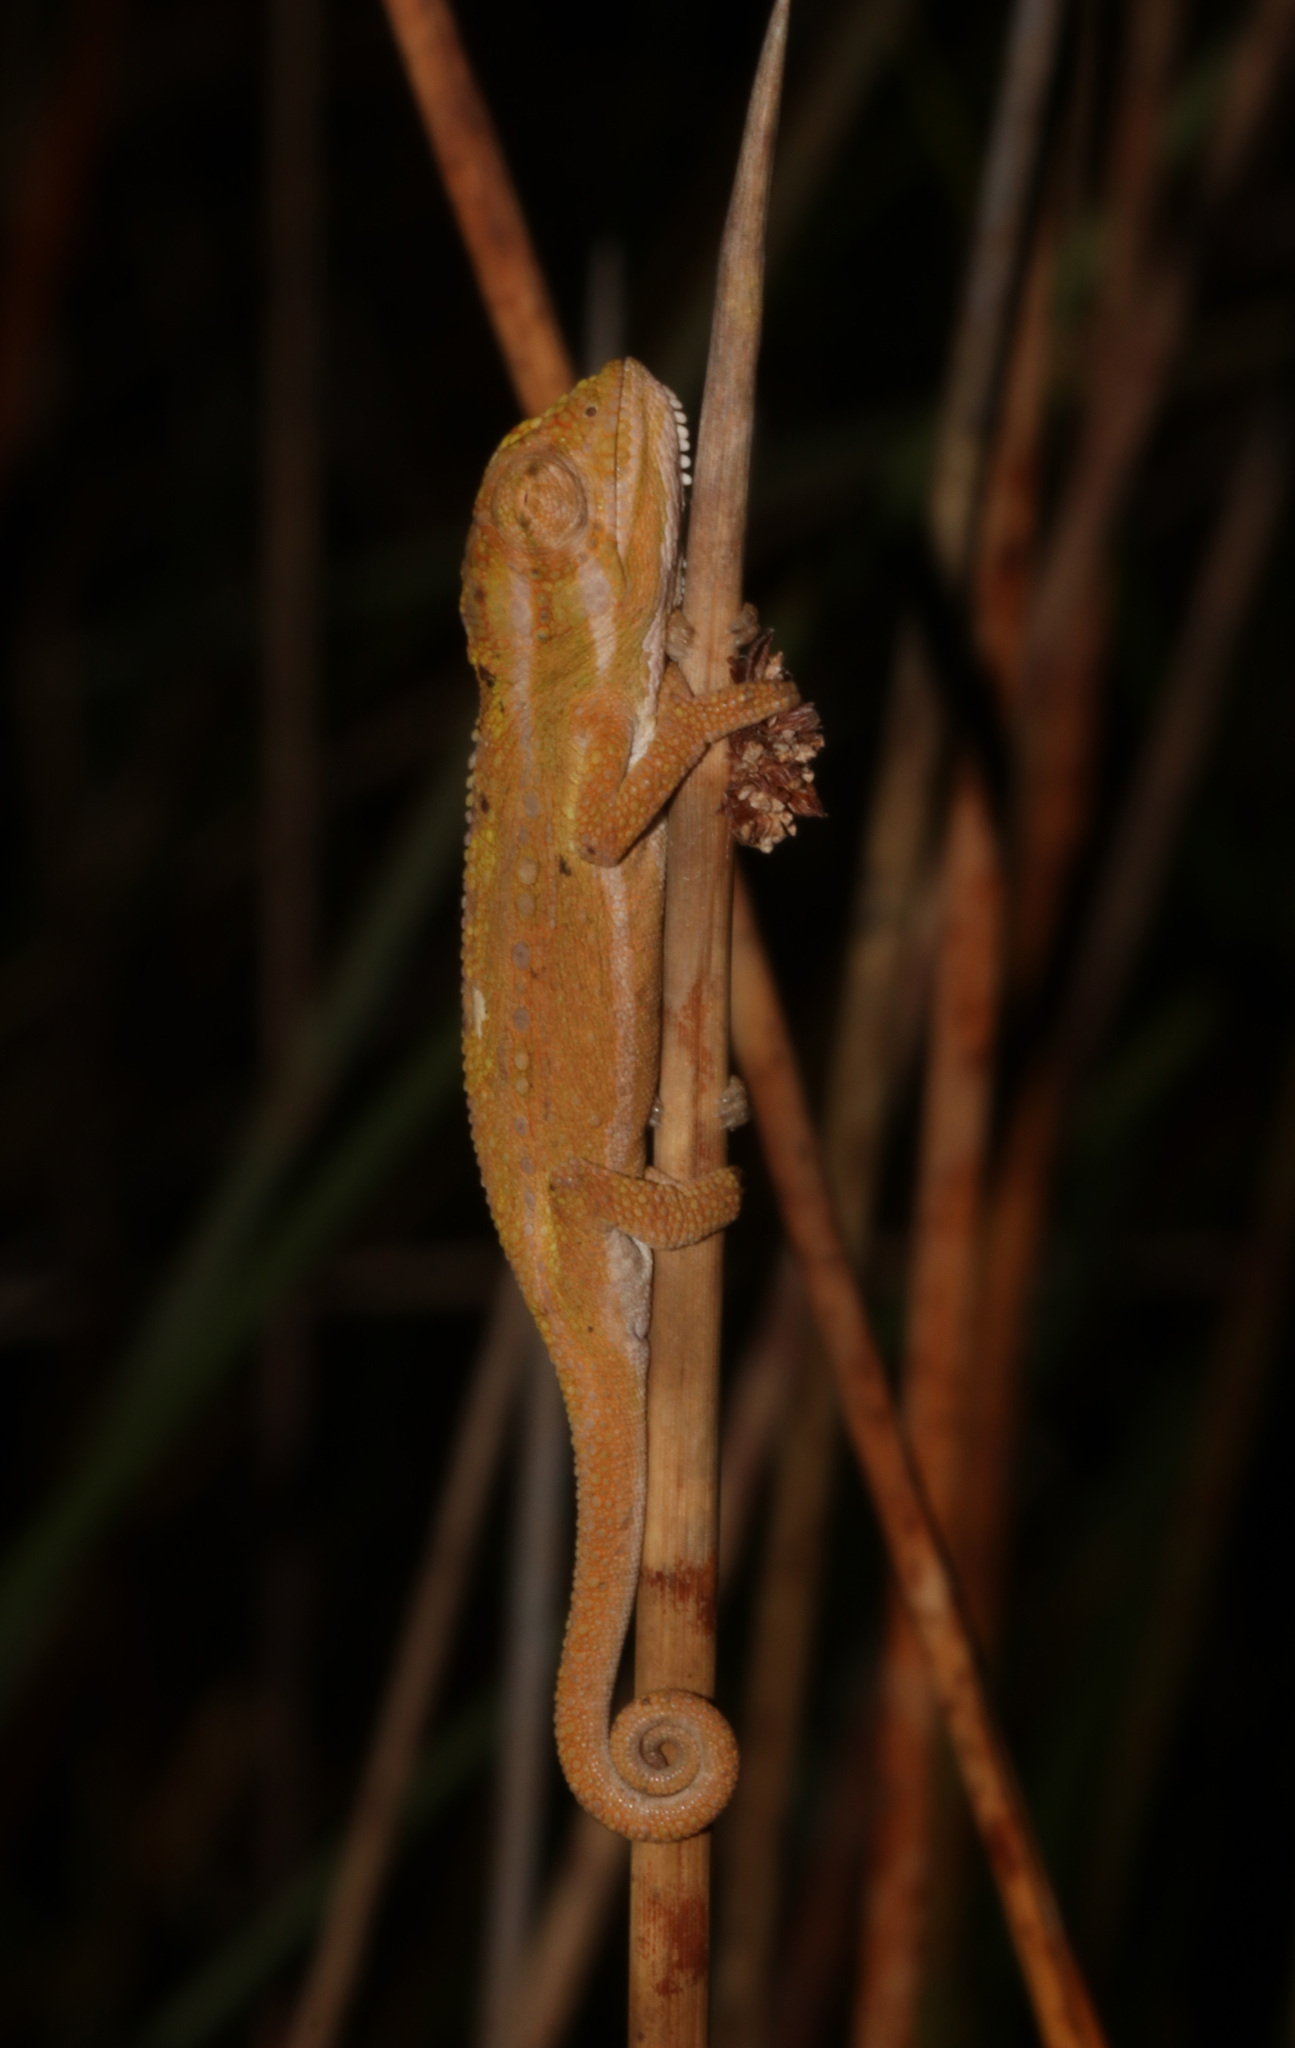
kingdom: Animalia
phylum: Chordata
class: Squamata
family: Chamaeleonidae
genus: Bradypodion
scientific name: Bradypodion pumilum
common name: Cape dwarf chameleon
